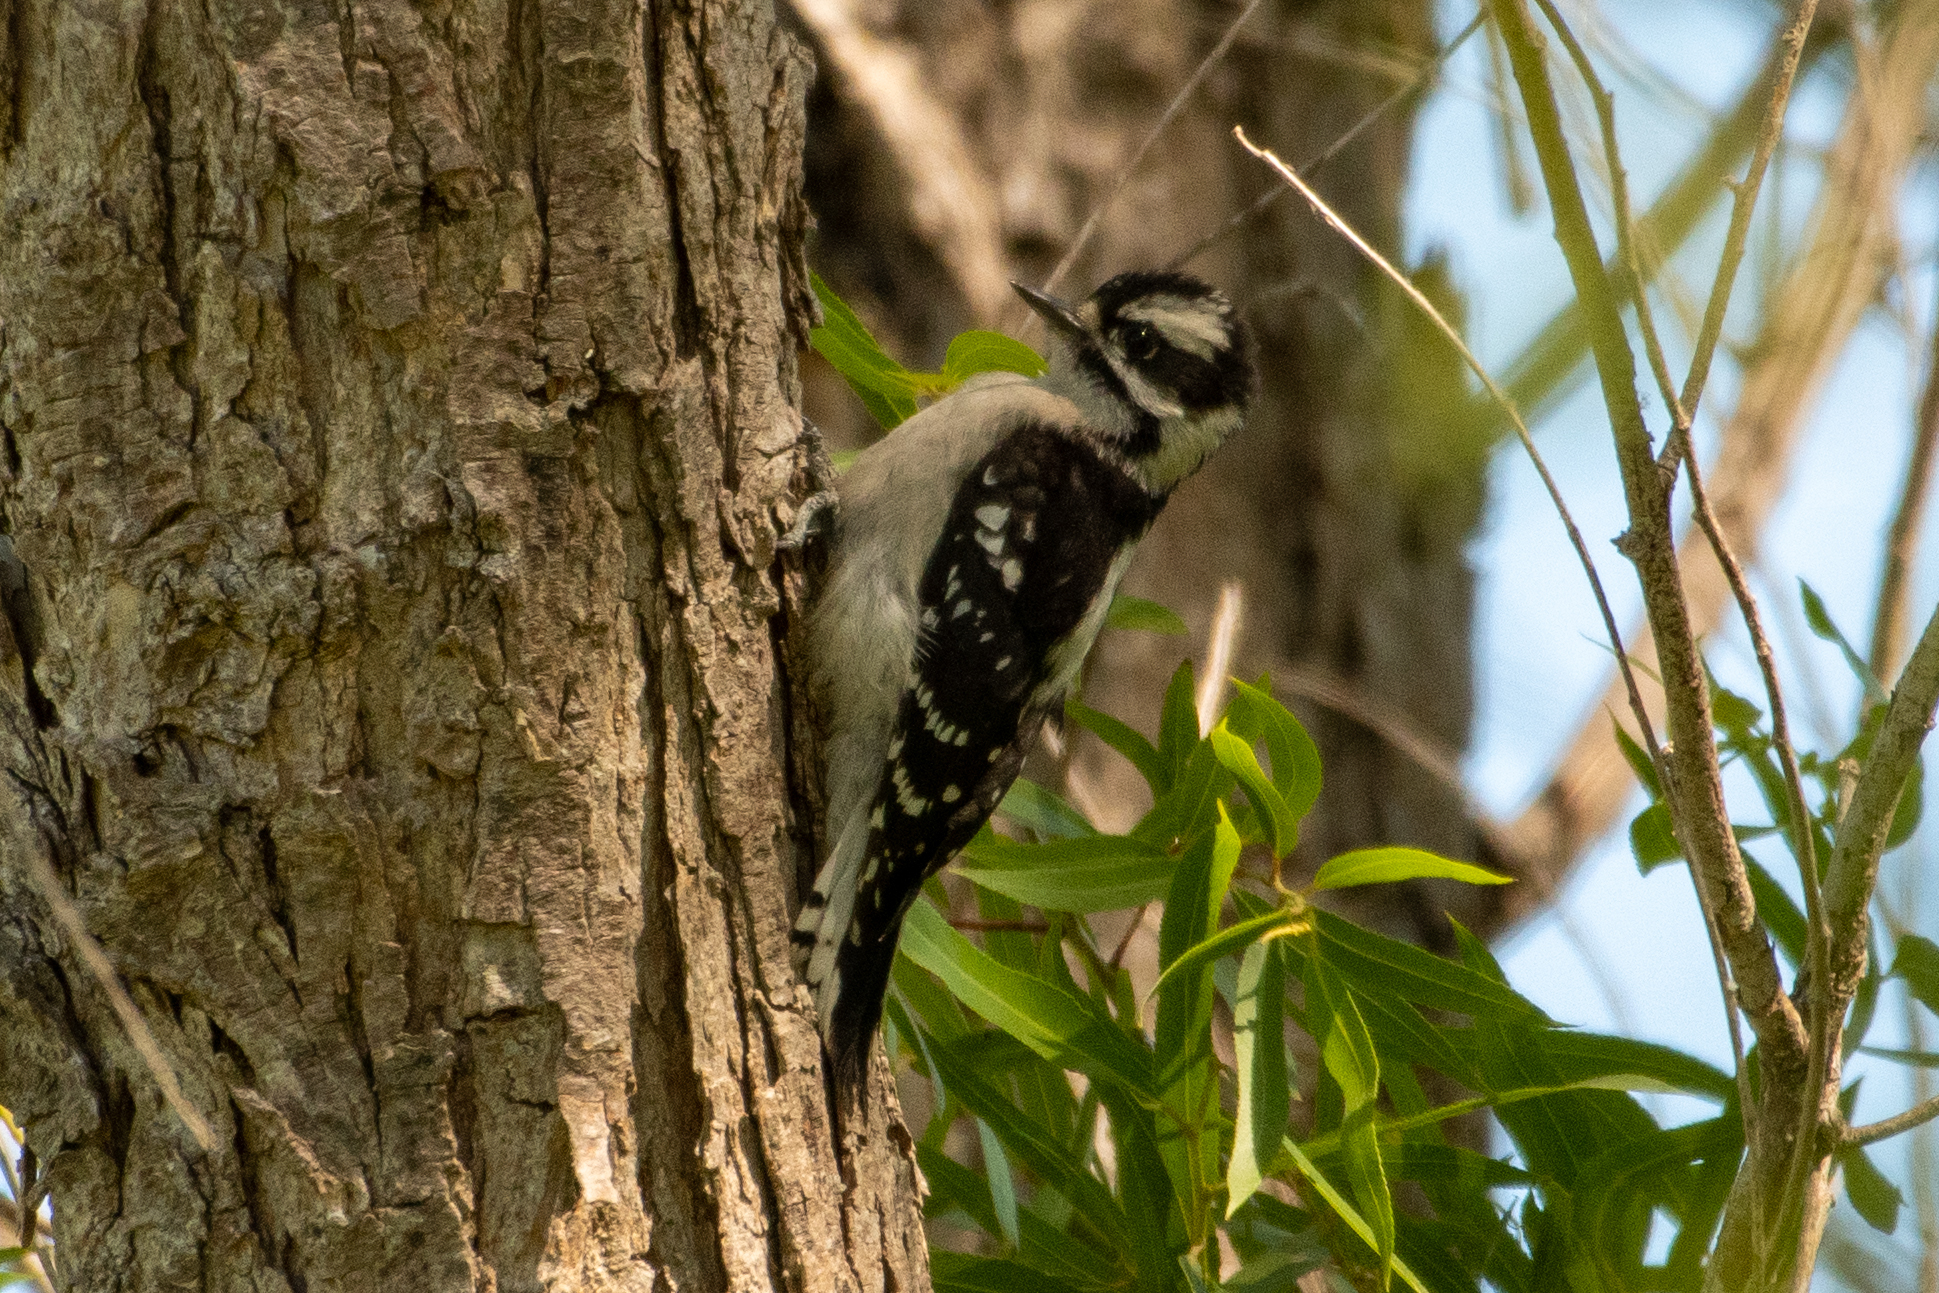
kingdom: Animalia
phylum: Chordata
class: Aves
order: Piciformes
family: Picidae
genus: Dryobates
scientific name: Dryobates pubescens
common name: Downy woodpecker
